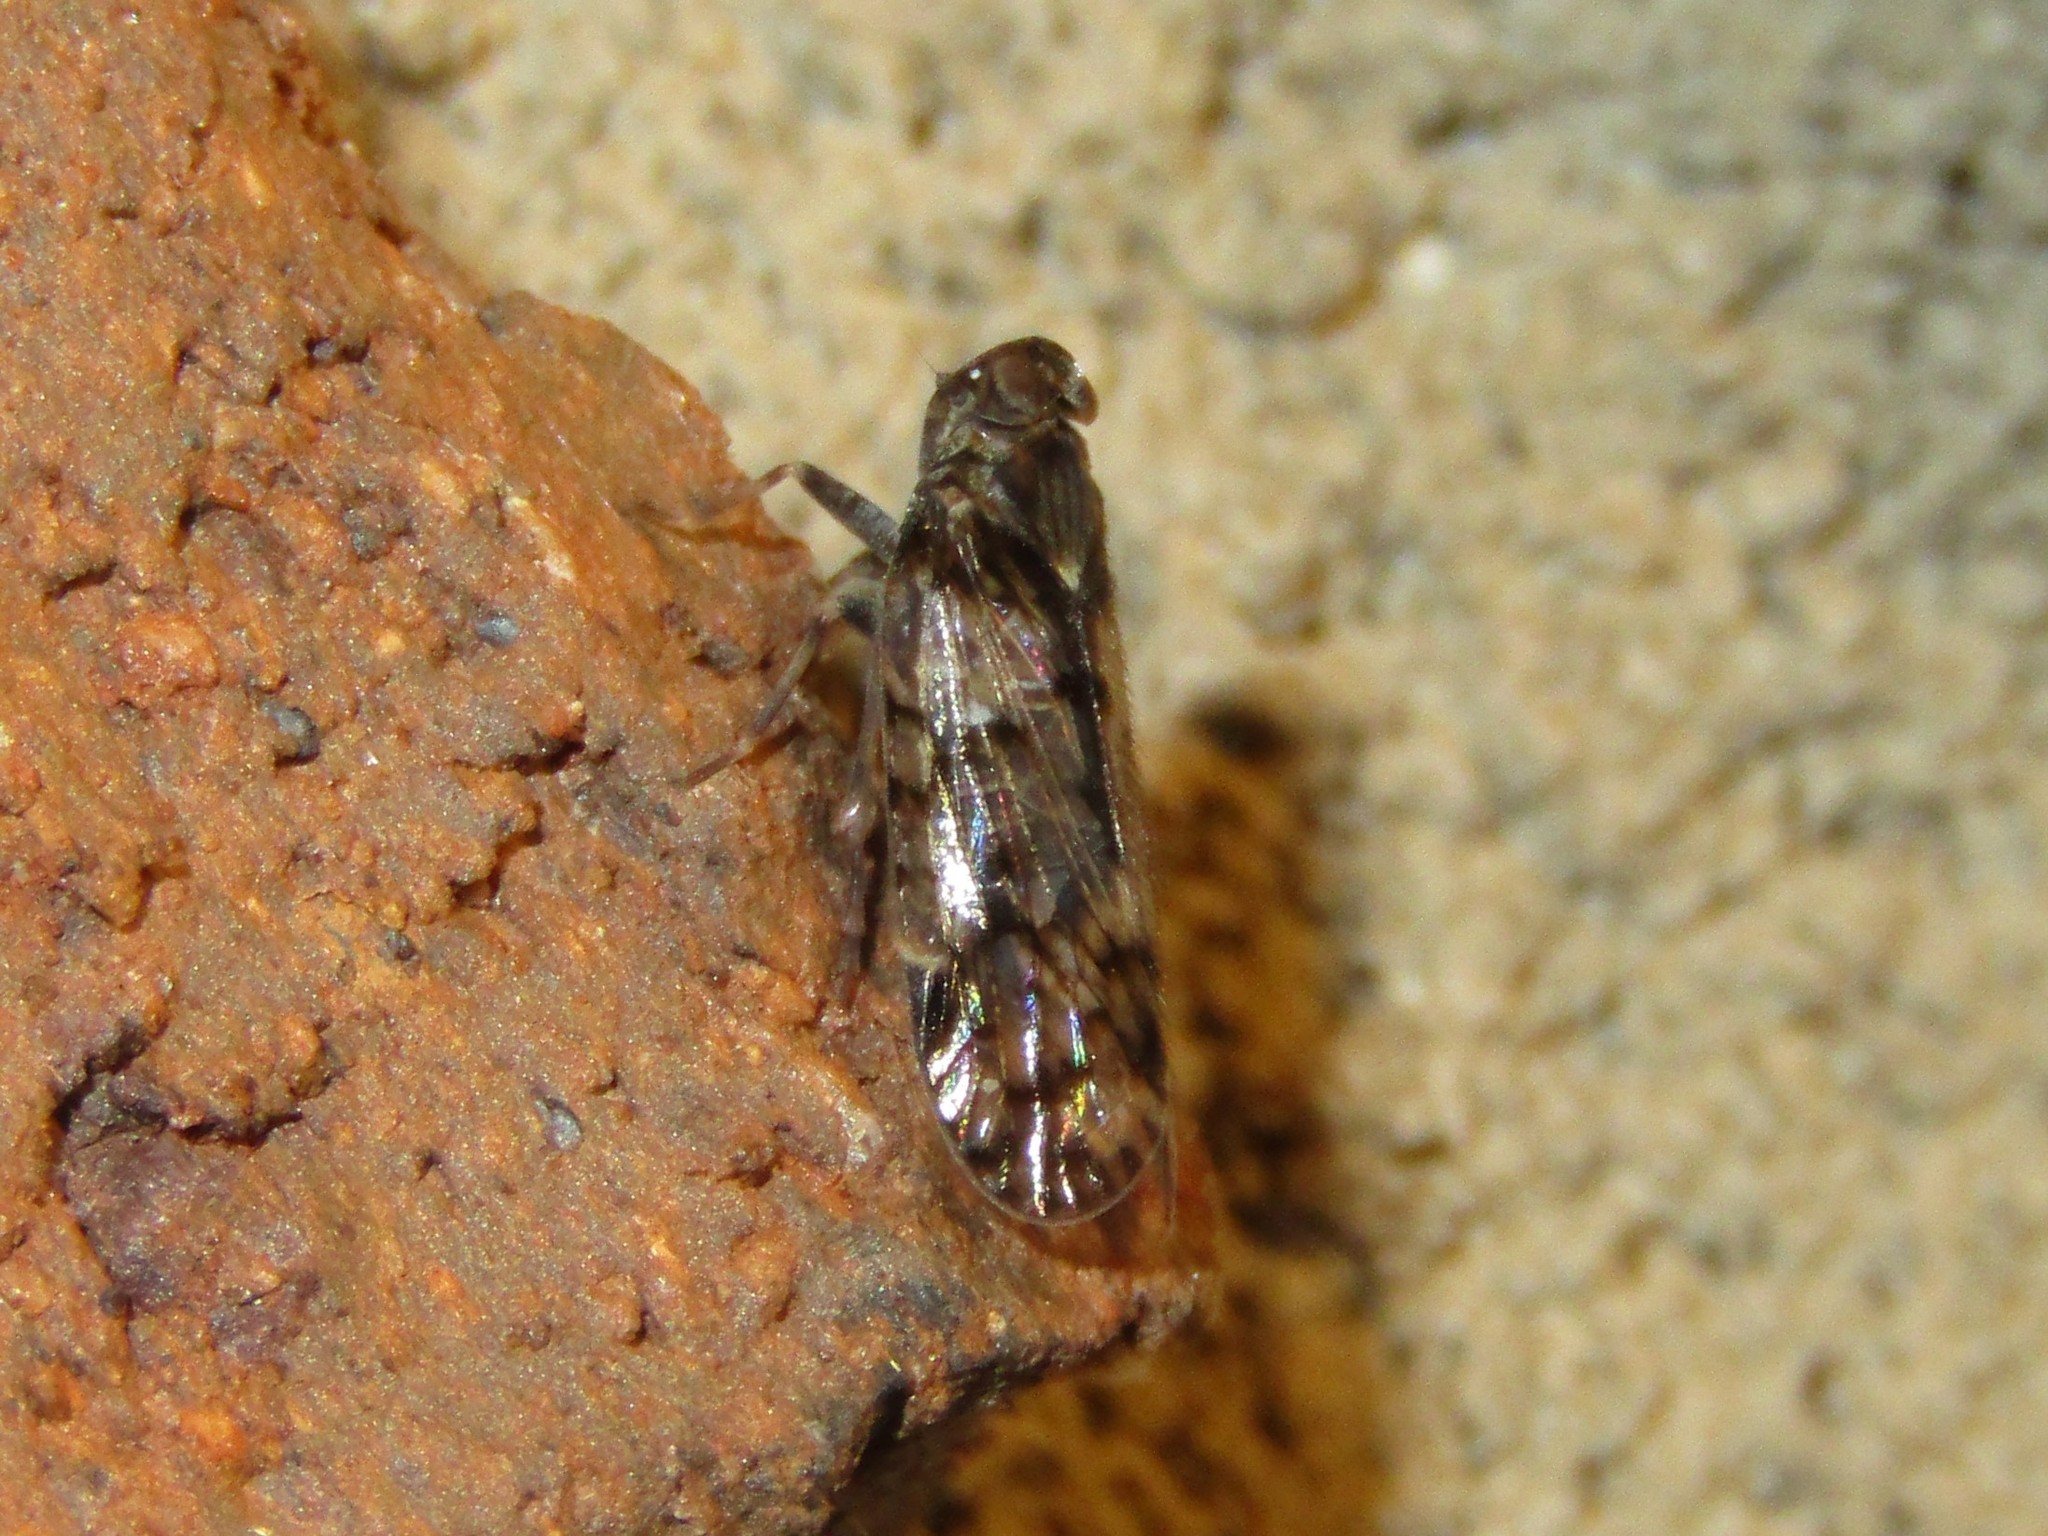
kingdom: Animalia
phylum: Arthropoda
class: Insecta
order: Hemiptera
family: Cixiidae
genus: Melanoliarus
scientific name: Melanoliarus placitus
